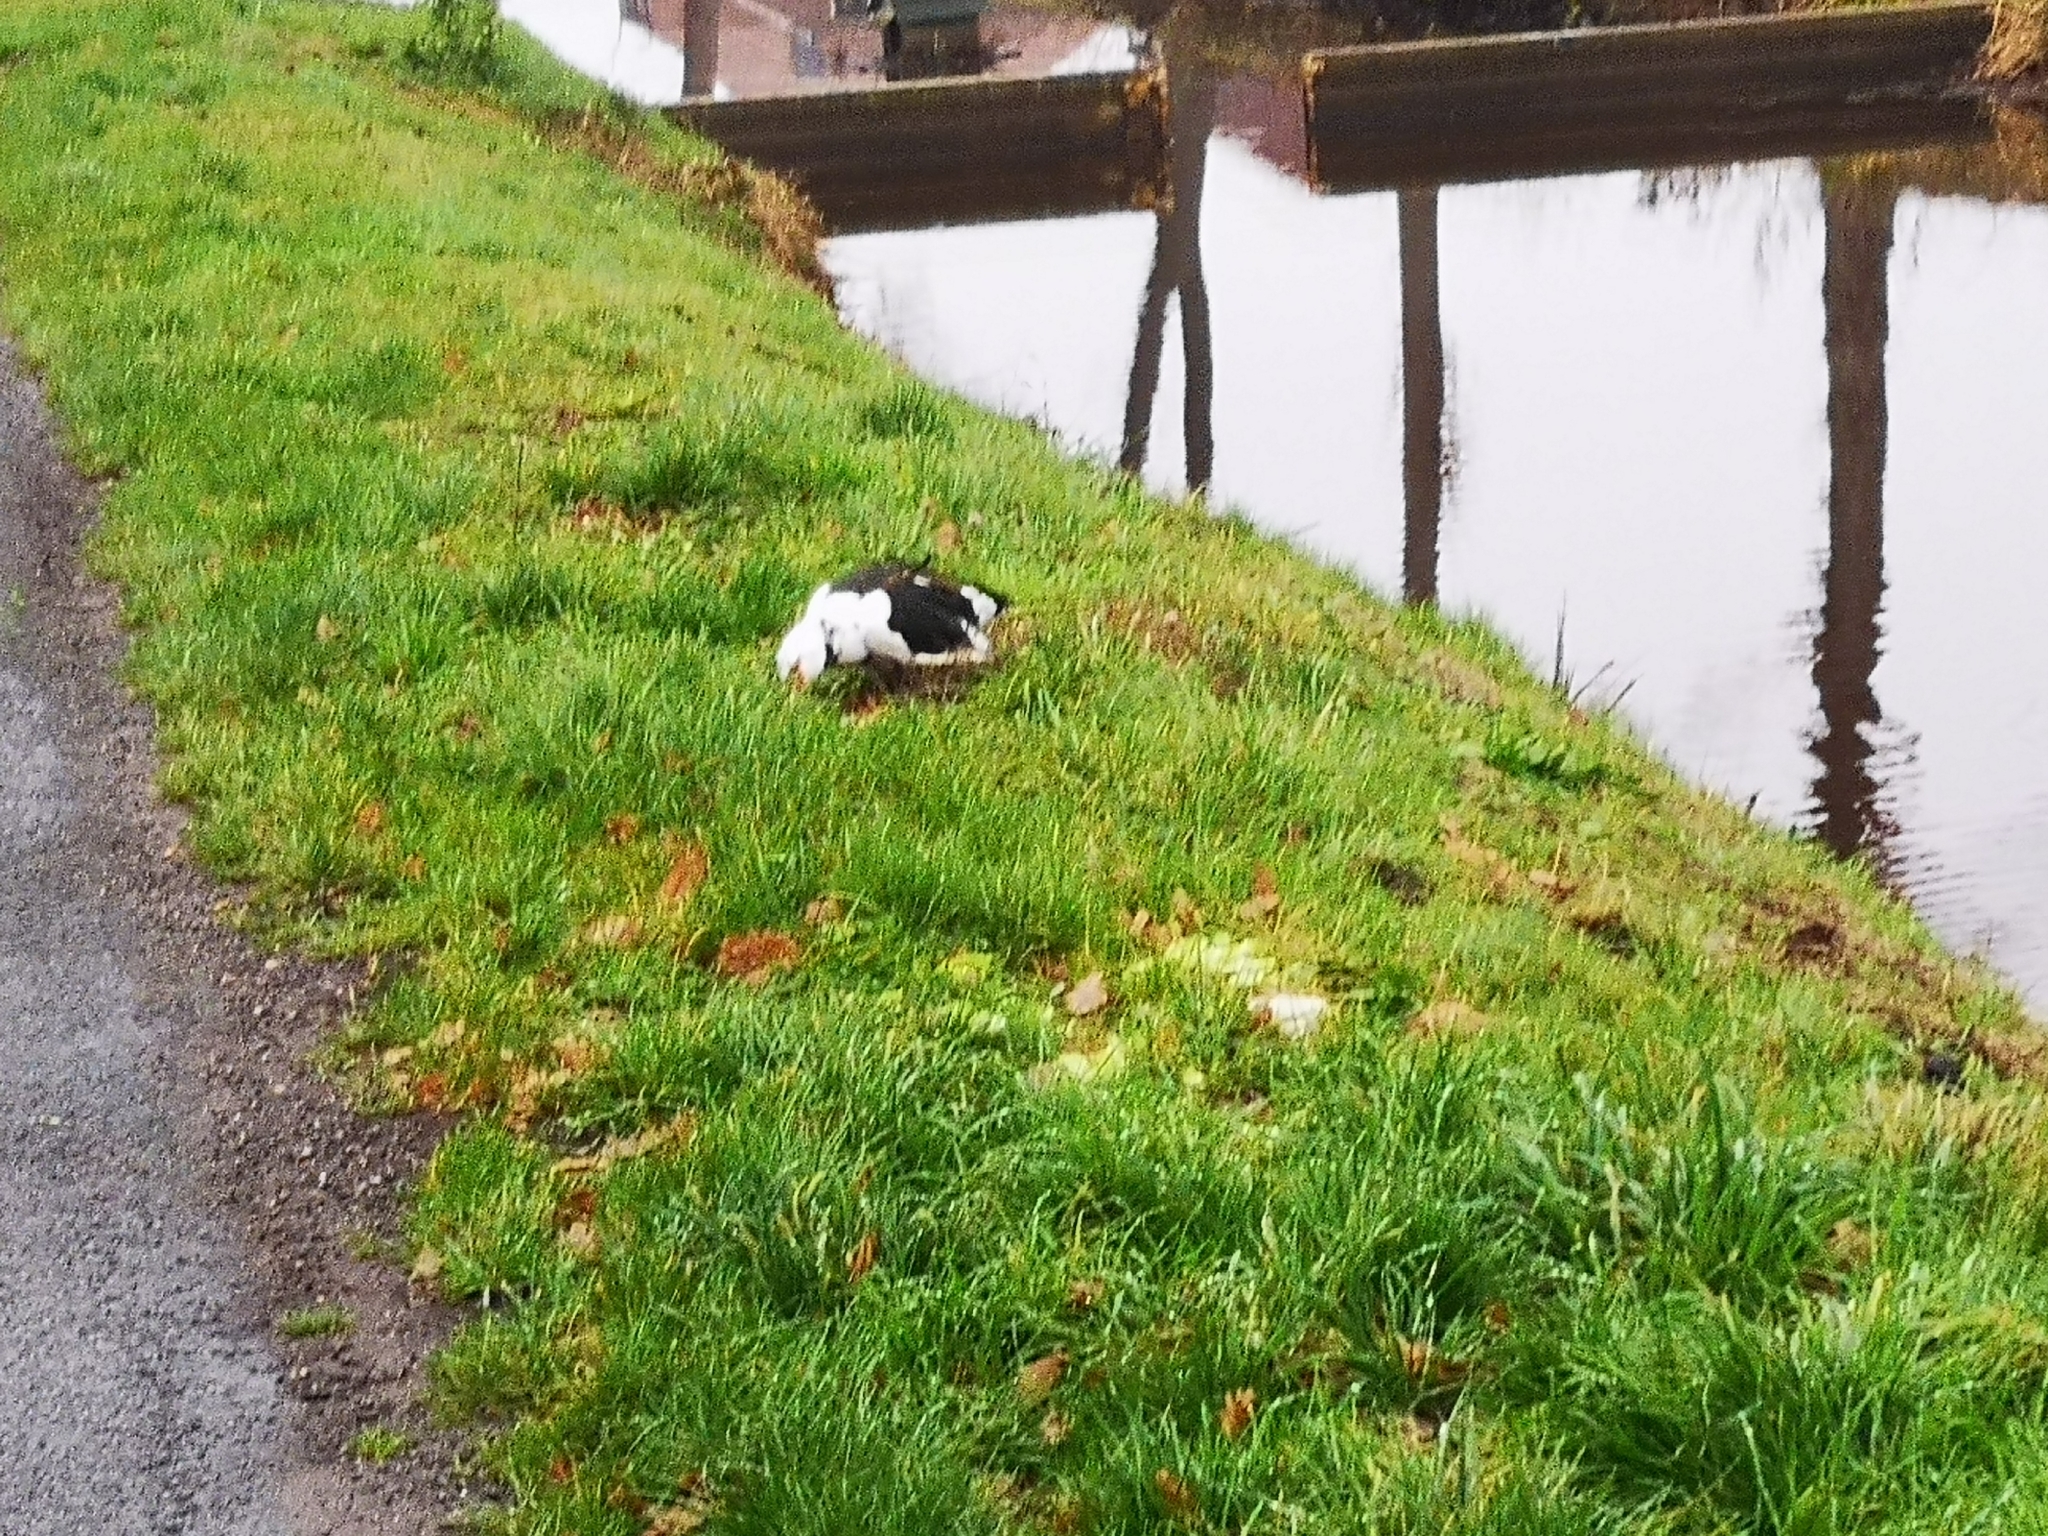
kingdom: Animalia
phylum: Chordata
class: Aves
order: Anseriformes
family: Anatidae
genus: Cairina
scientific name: Cairina moschata
